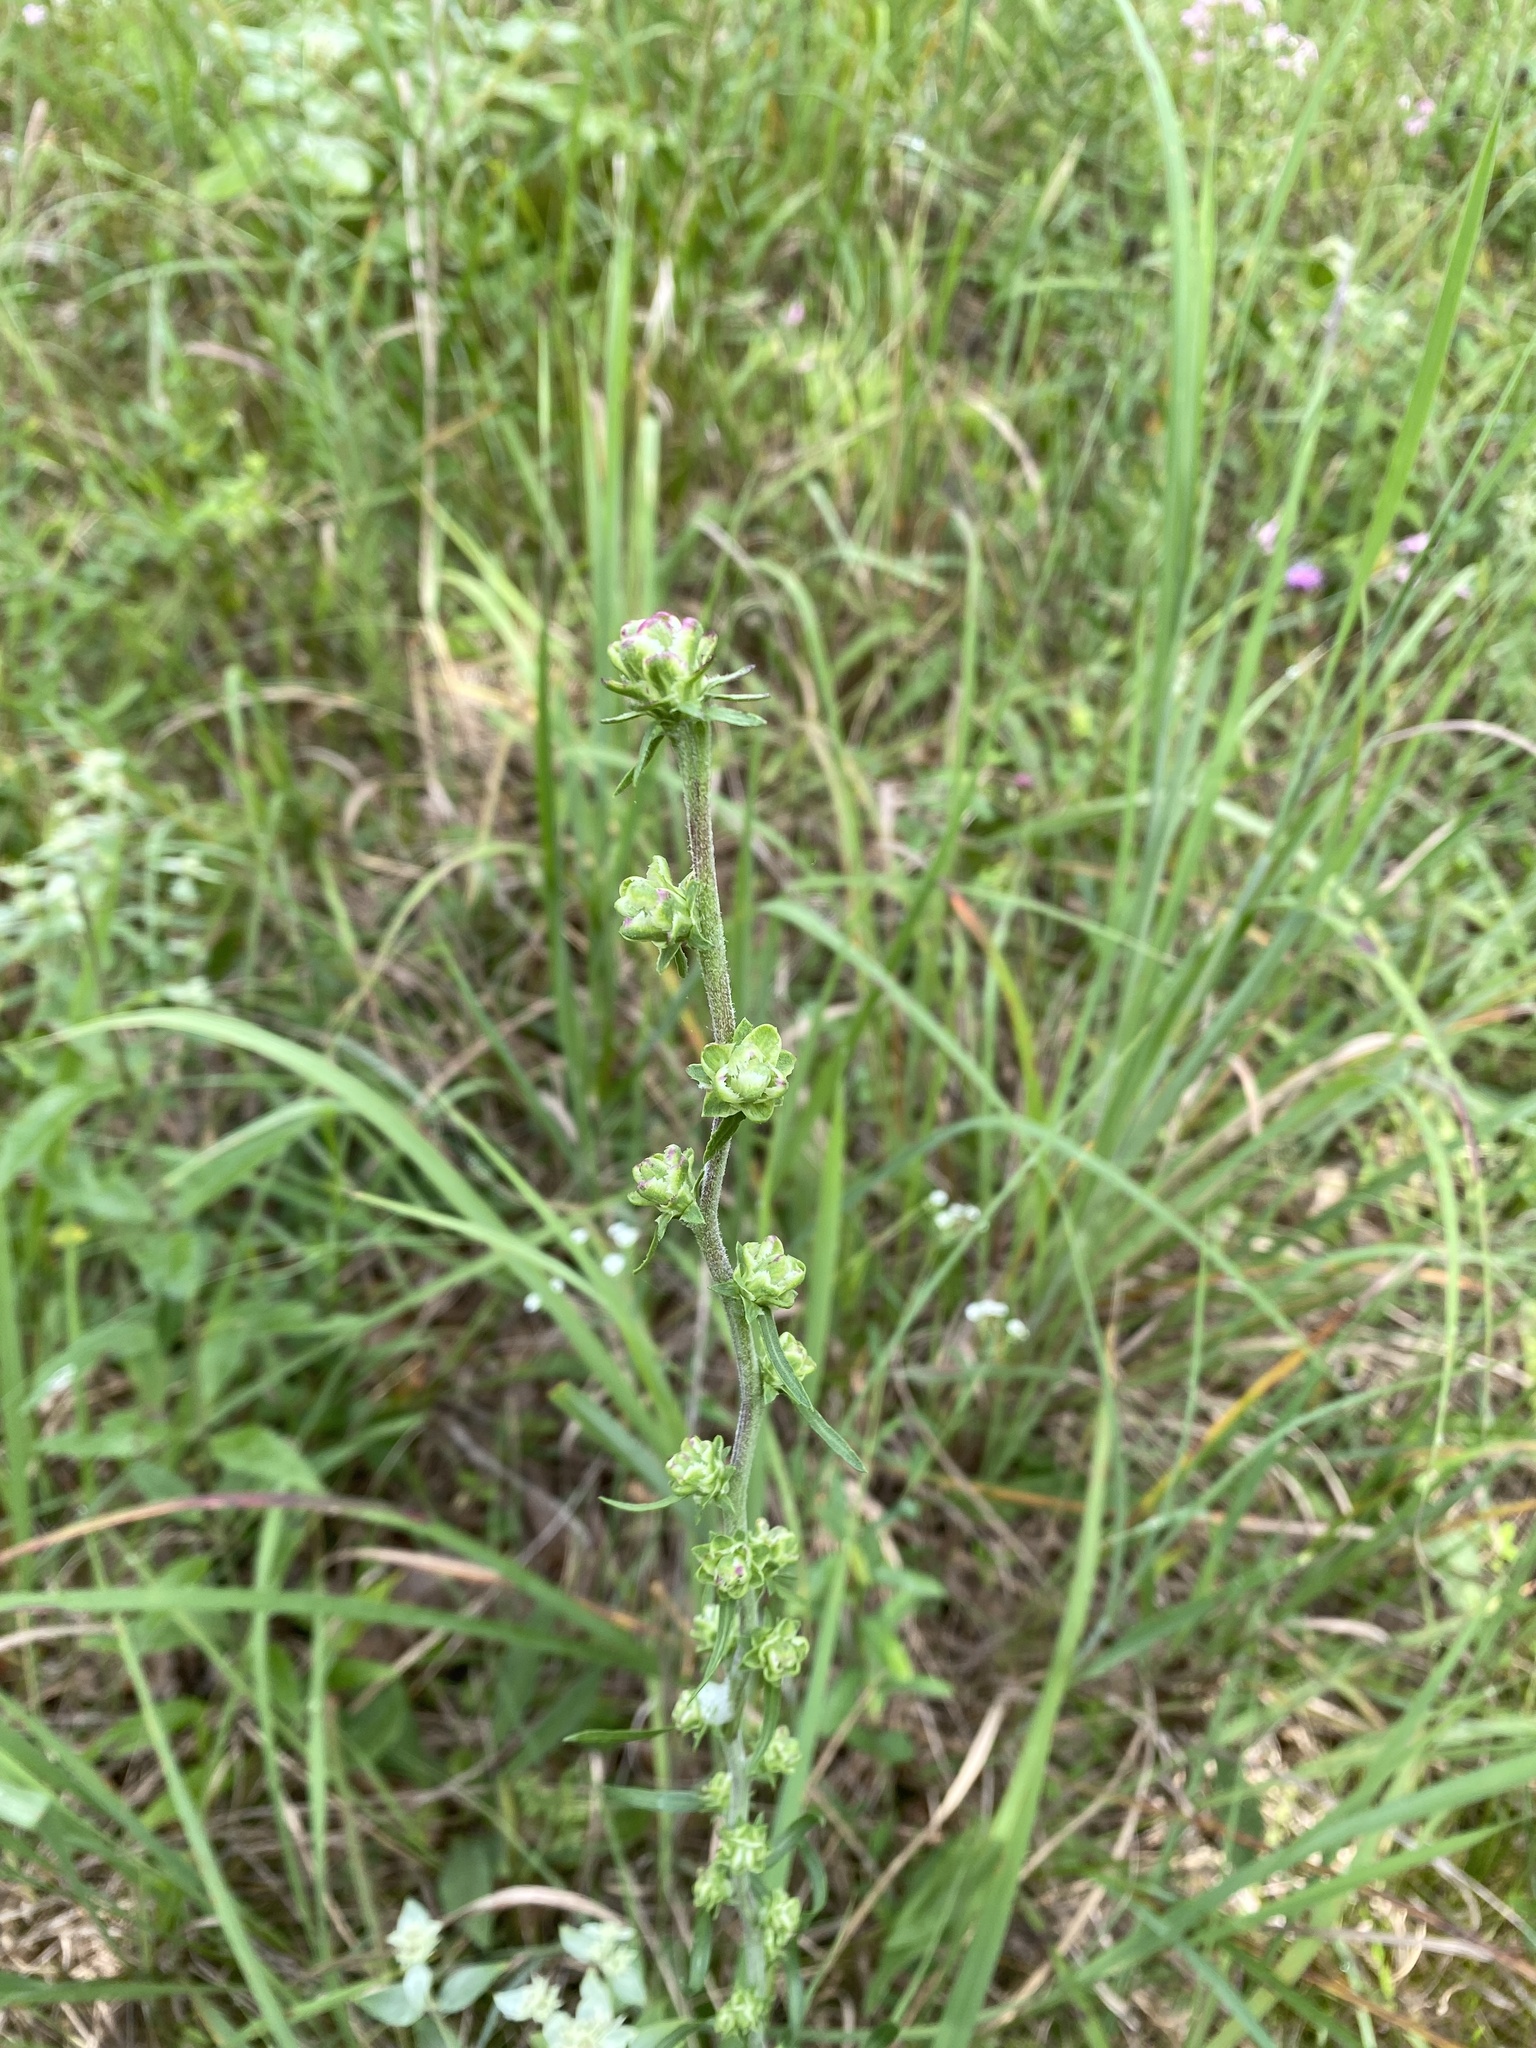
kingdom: Plantae
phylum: Tracheophyta
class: Magnoliopsida
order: Asterales
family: Asteraceae
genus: Liatris
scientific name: Liatris aspera
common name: Lacerate blazing-star
